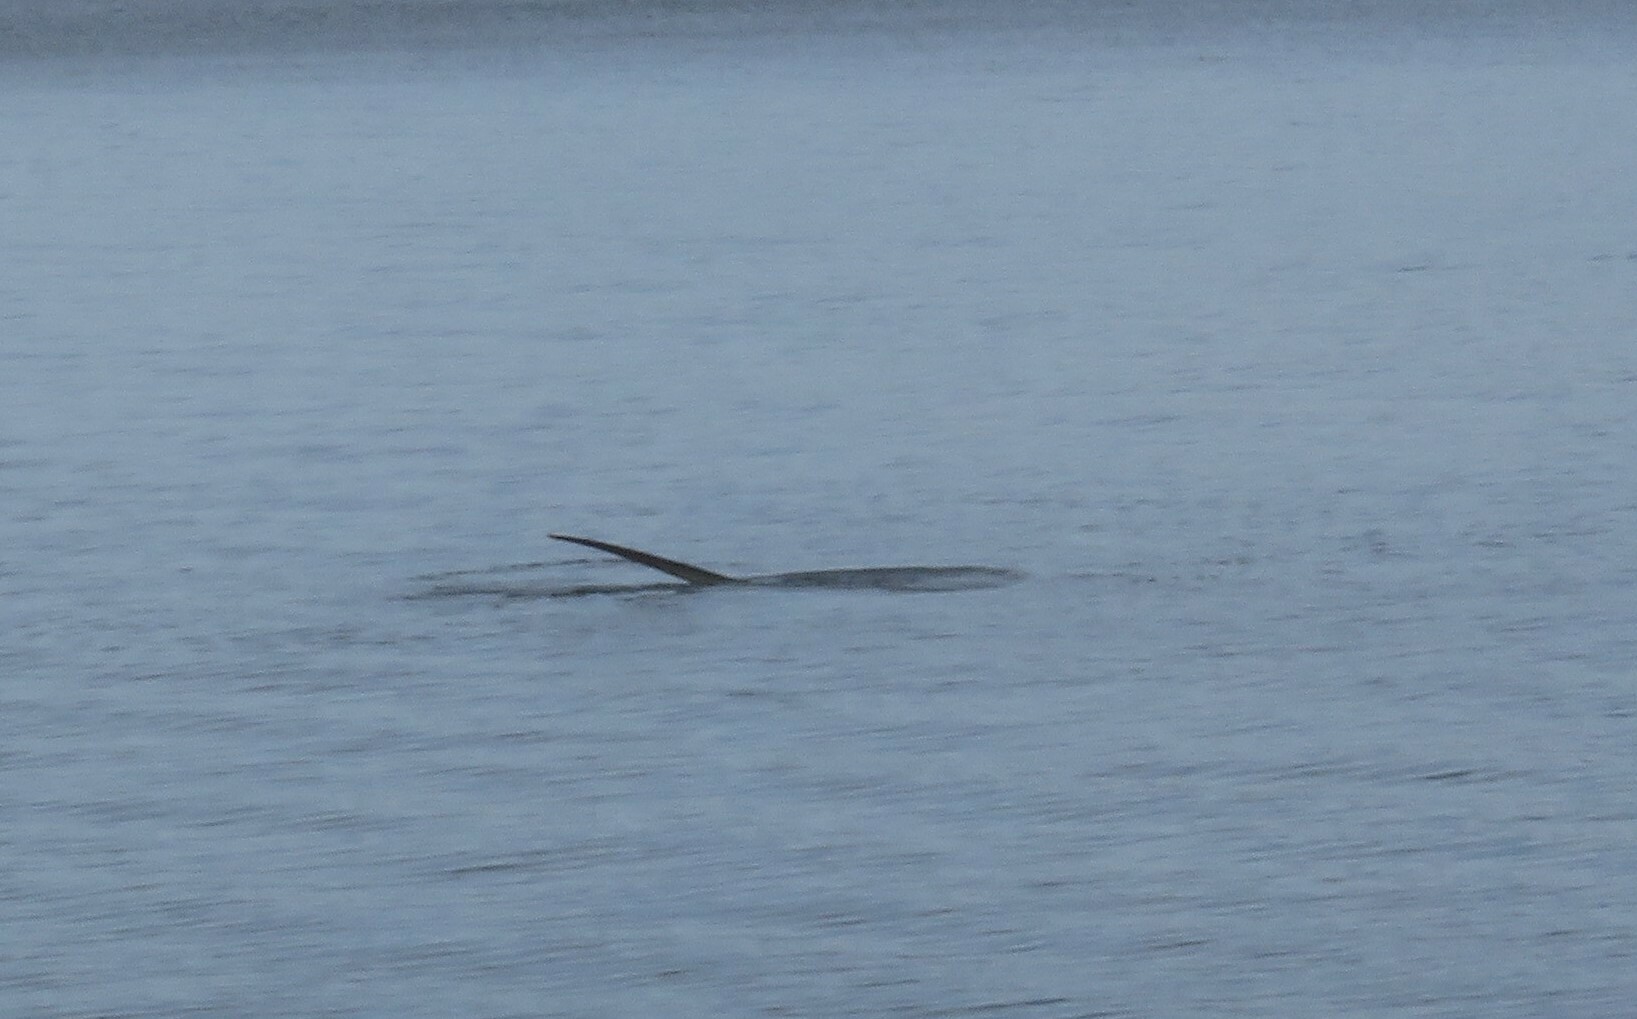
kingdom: Animalia
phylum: Chordata
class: Elasmobranchii
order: Lamniformes
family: Alopiidae
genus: Alopias
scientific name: Alopias vulpinus
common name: Thresher shark
